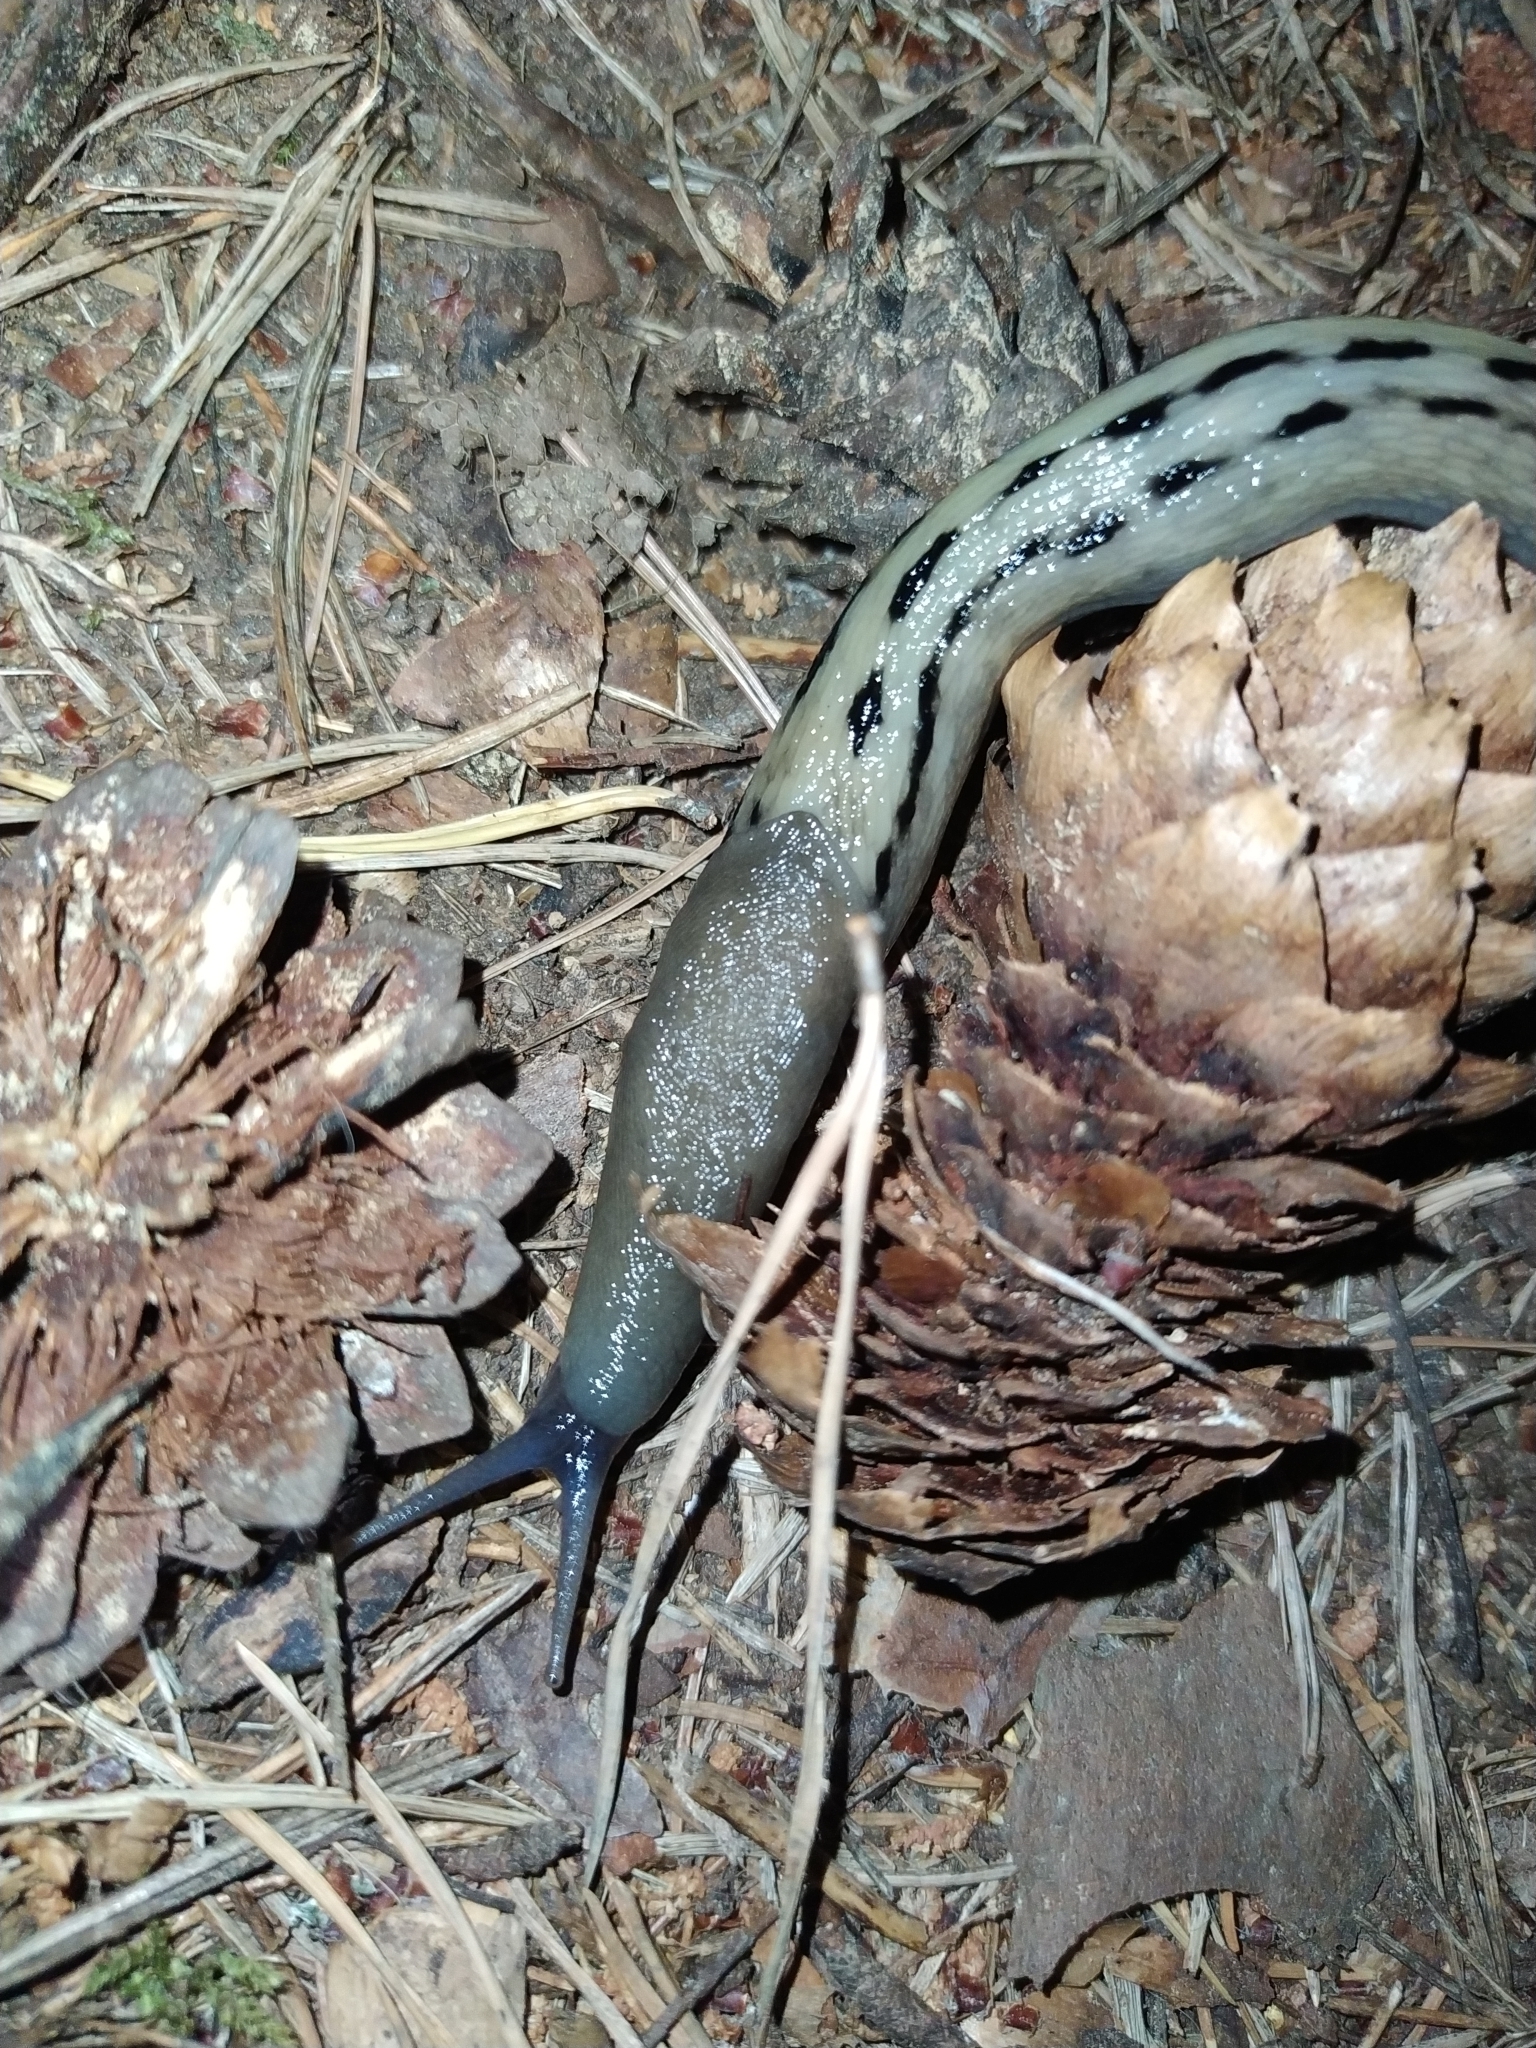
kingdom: Animalia
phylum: Mollusca
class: Gastropoda
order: Stylommatophora
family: Limacidae
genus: Limax
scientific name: Limax cinereoniger
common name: Ash-black slug
